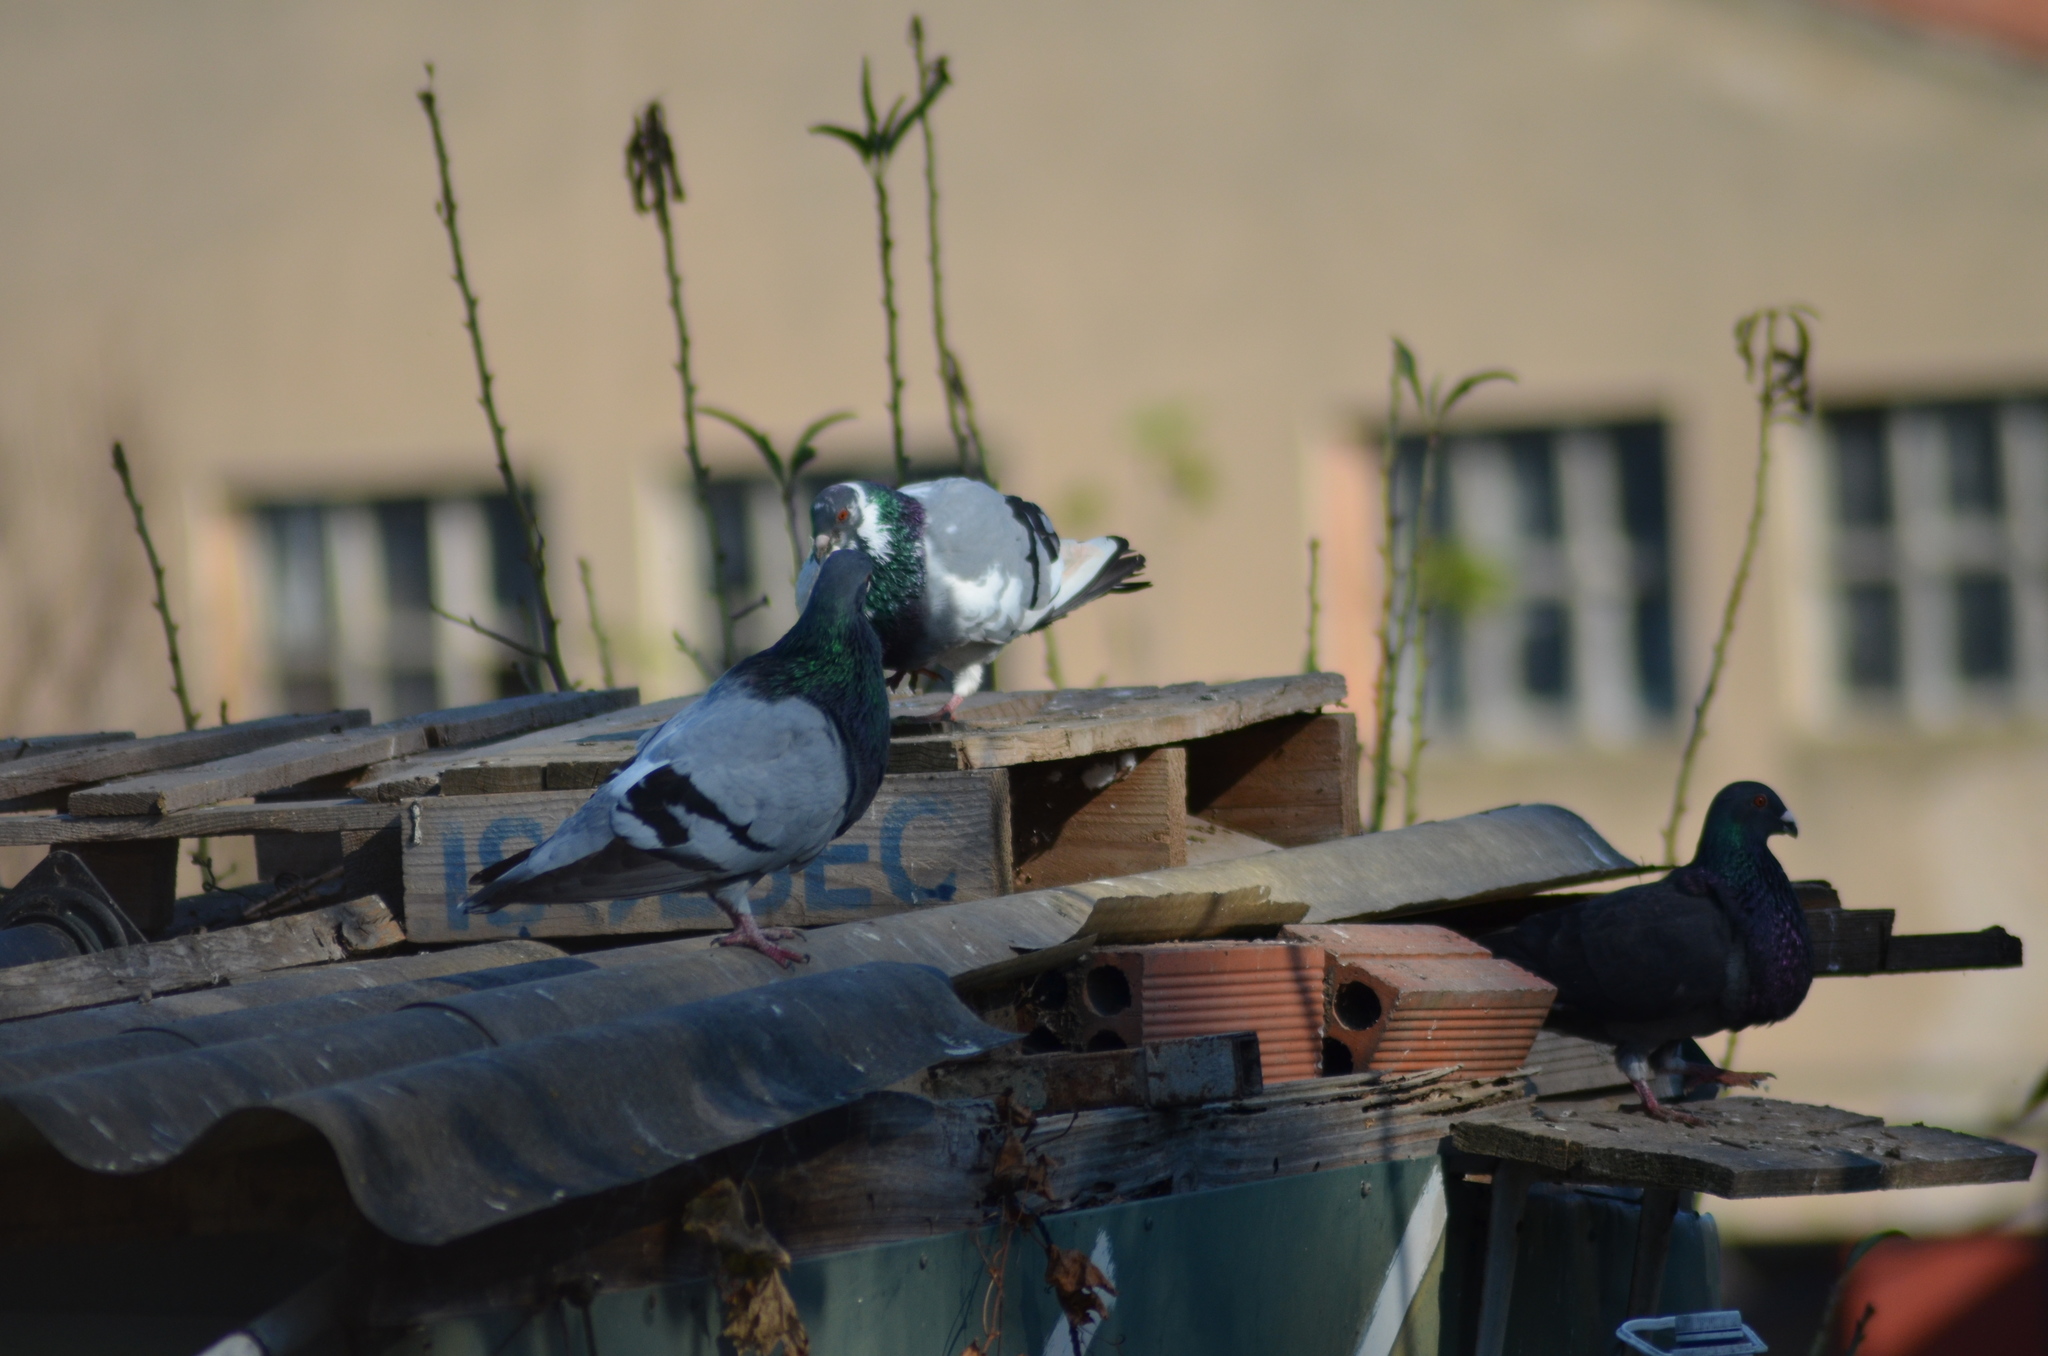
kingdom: Animalia
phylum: Chordata
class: Aves
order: Columbiformes
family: Columbidae
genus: Columba
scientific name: Columba livia
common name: Rock pigeon
